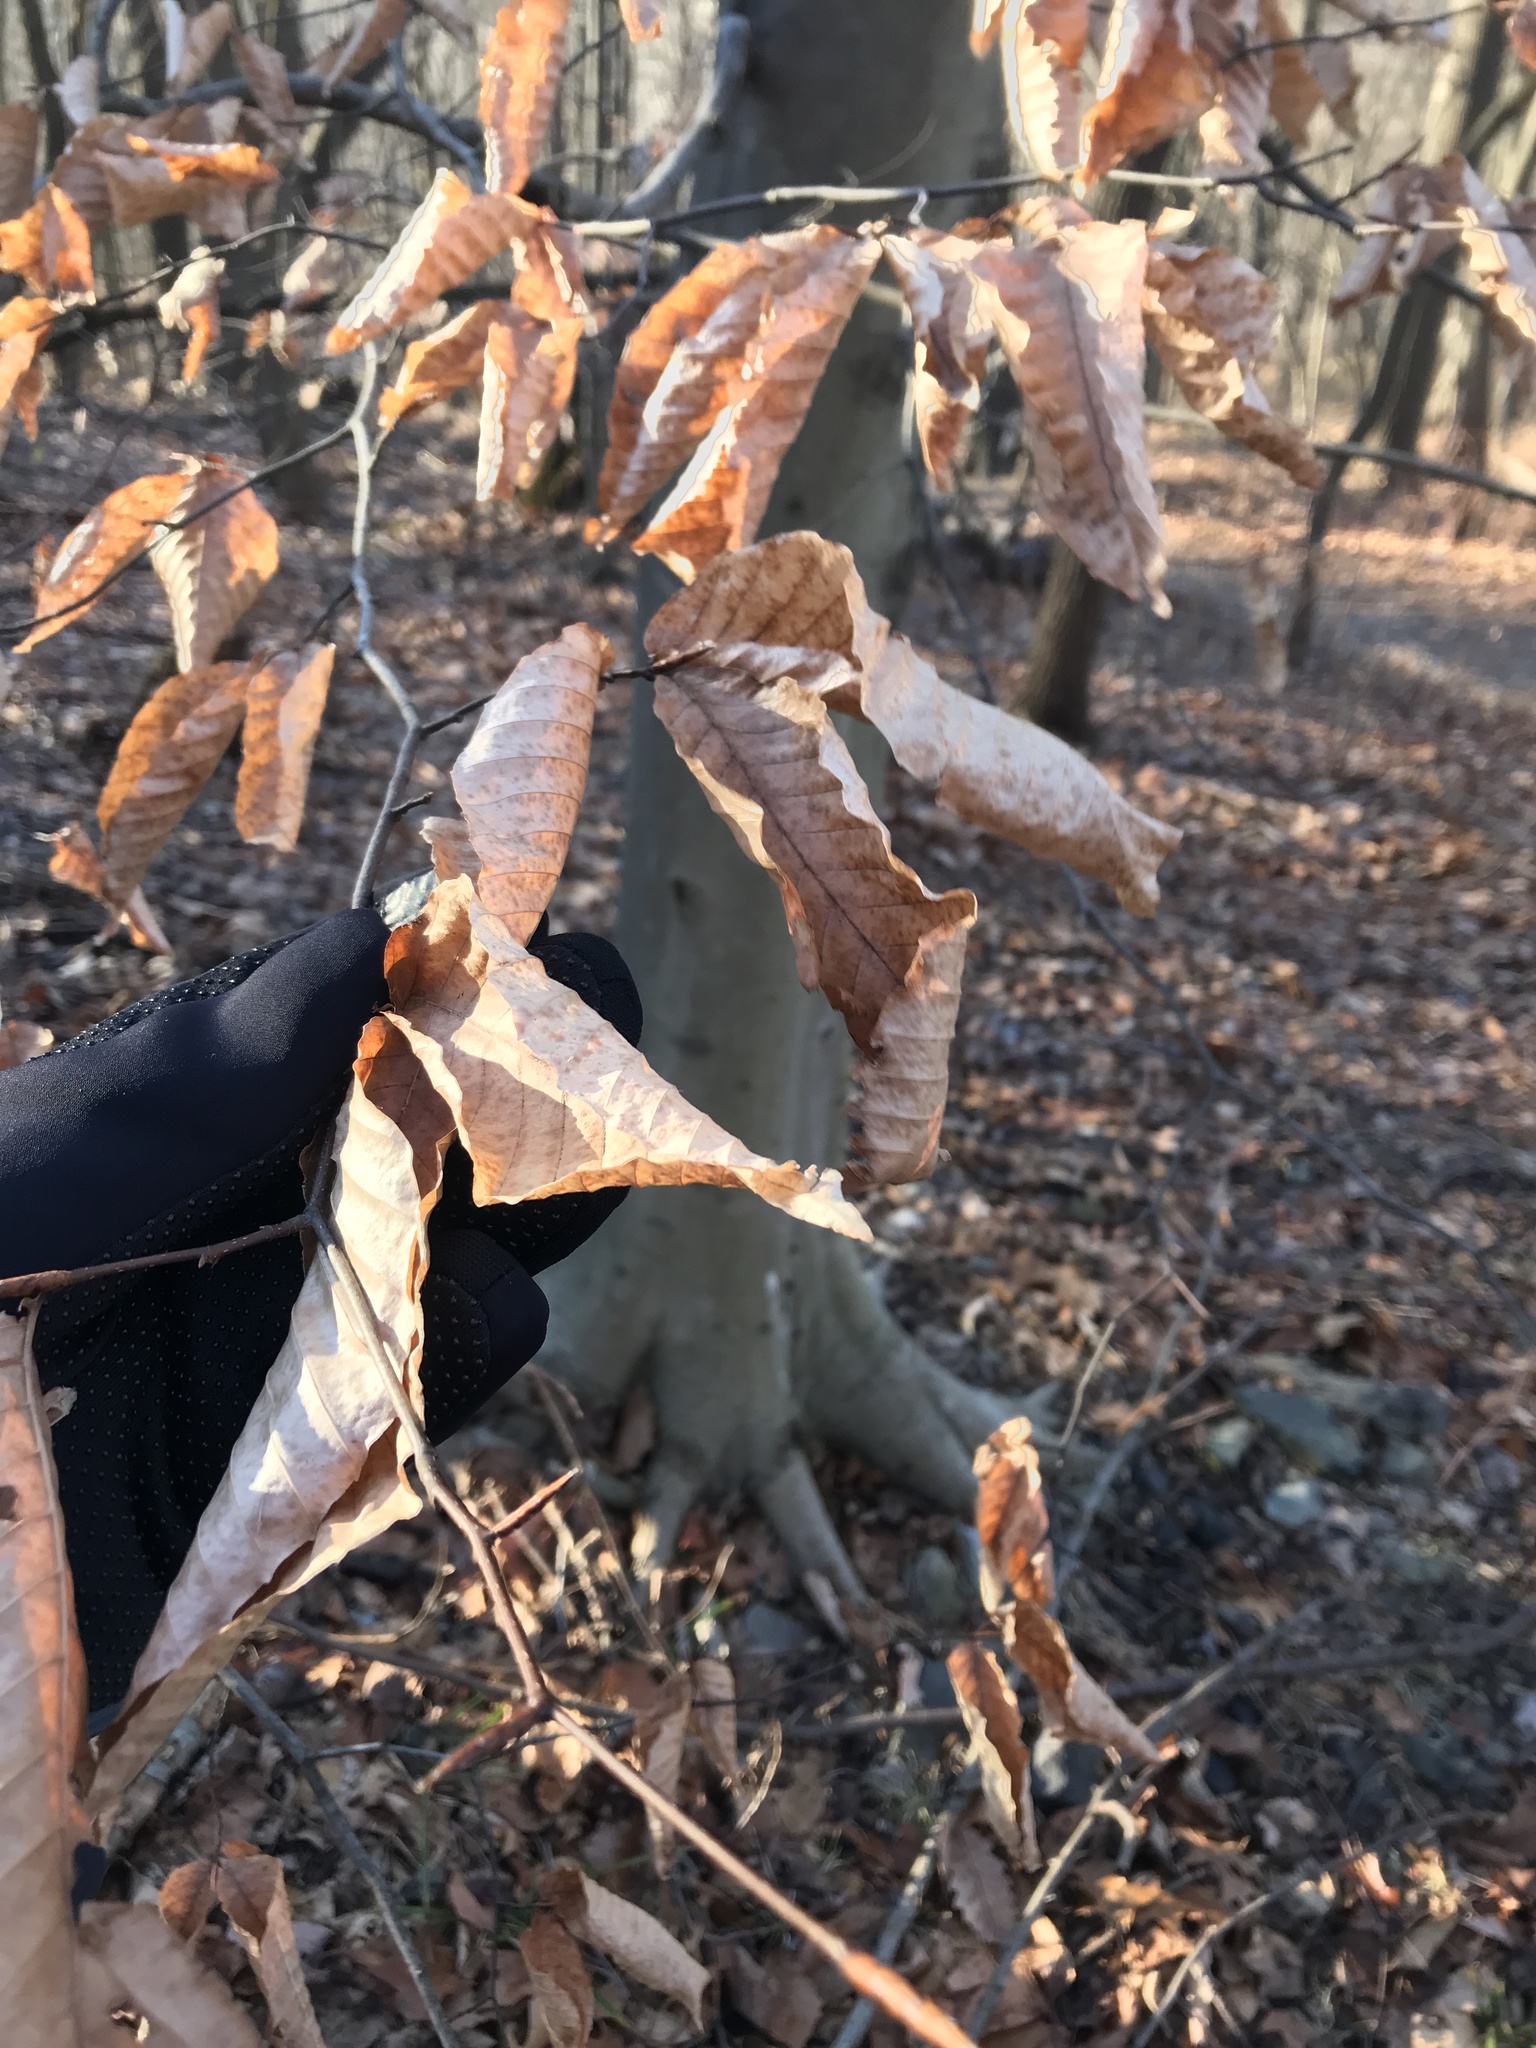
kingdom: Plantae
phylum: Tracheophyta
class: Magnoliopsida
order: Fagales
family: Fagaceae
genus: Fagus
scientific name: Fagus grandifolia
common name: American beech
